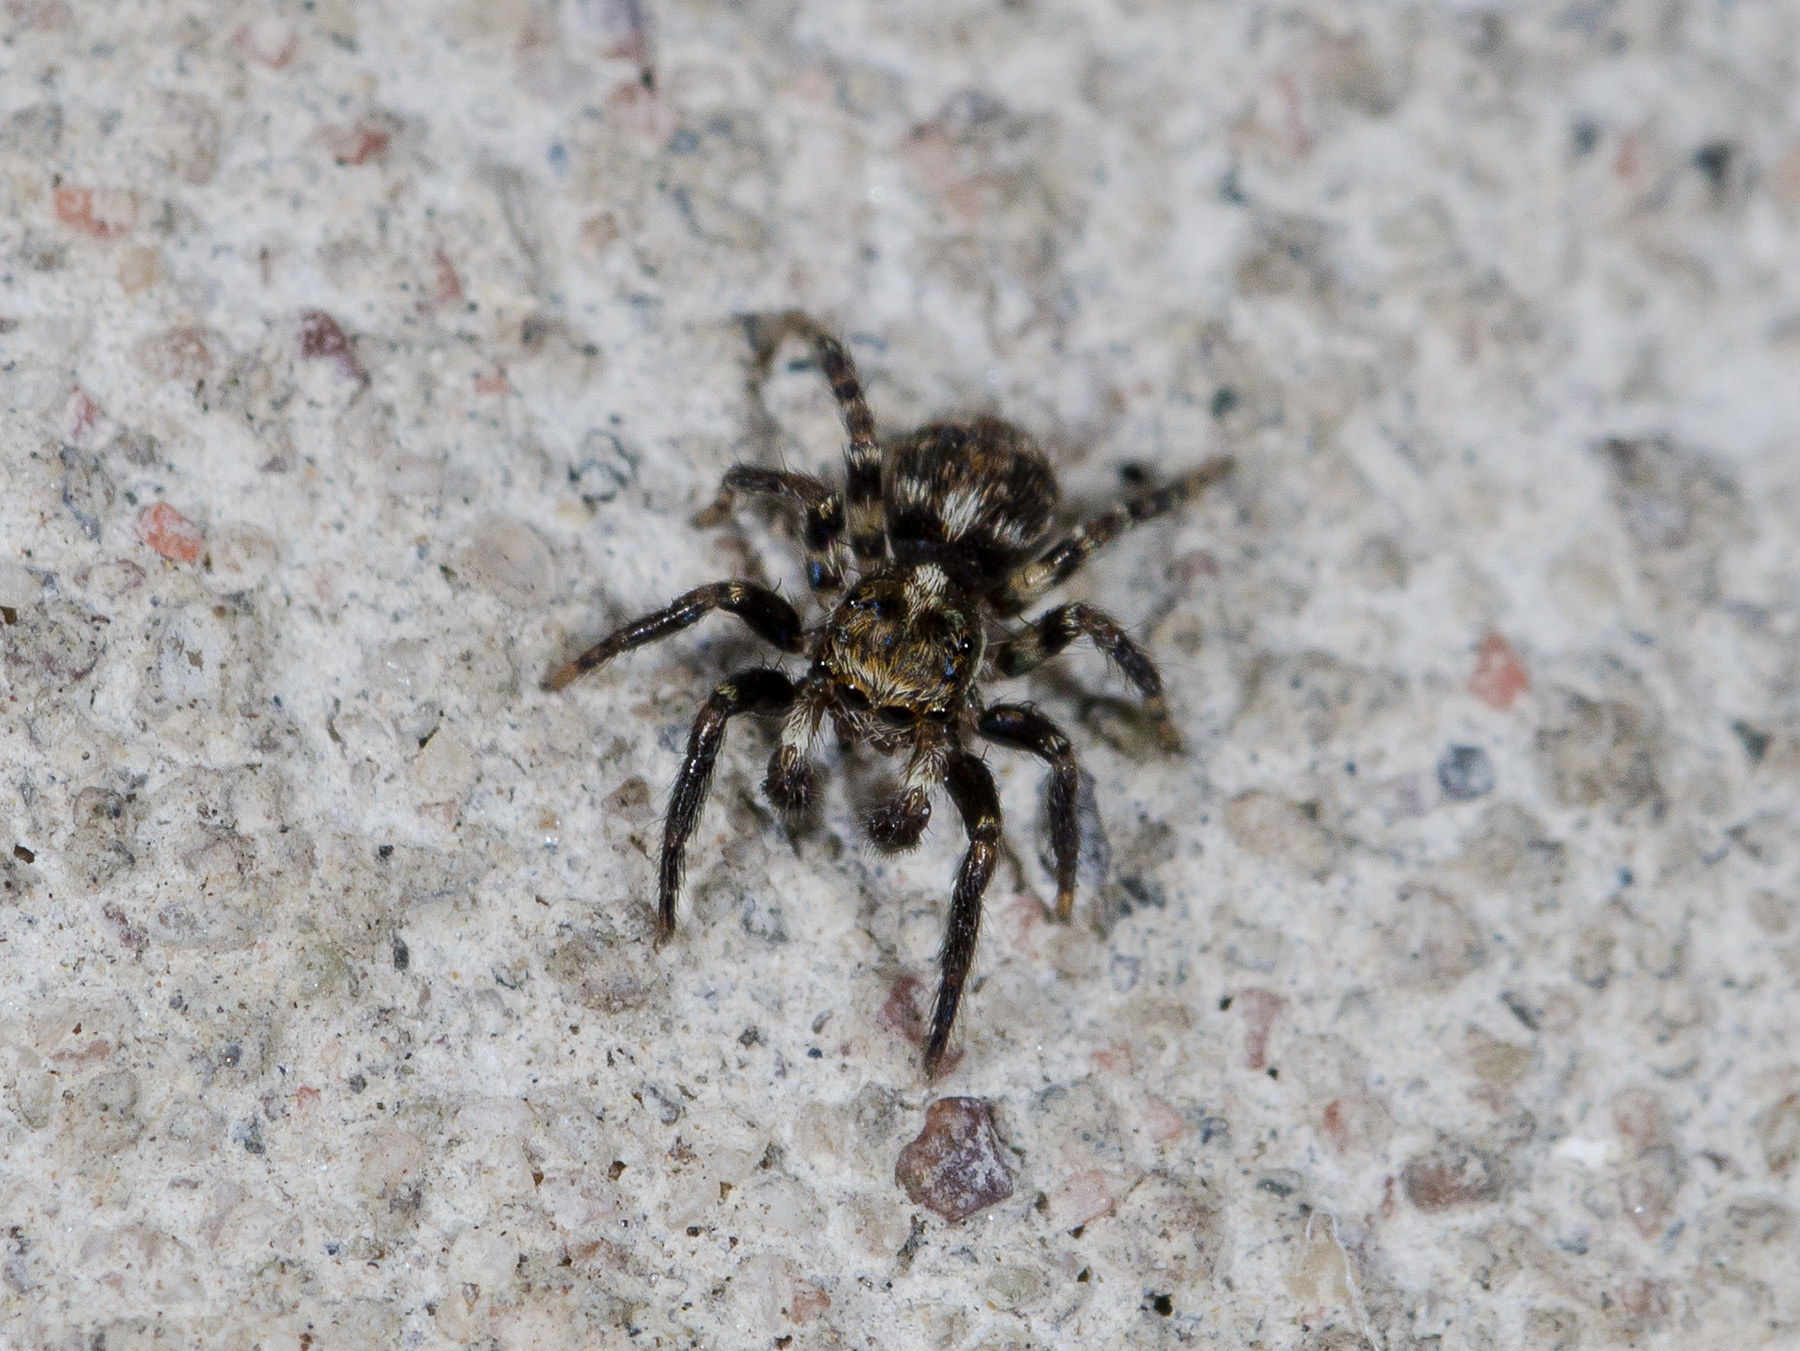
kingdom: Animalia
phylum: Arthropoda
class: Arachnida
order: Araneae
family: Salticidae
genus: Pseudeuophrys
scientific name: Pseudeuophrys obsoleta
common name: Whelk-shell jumper
